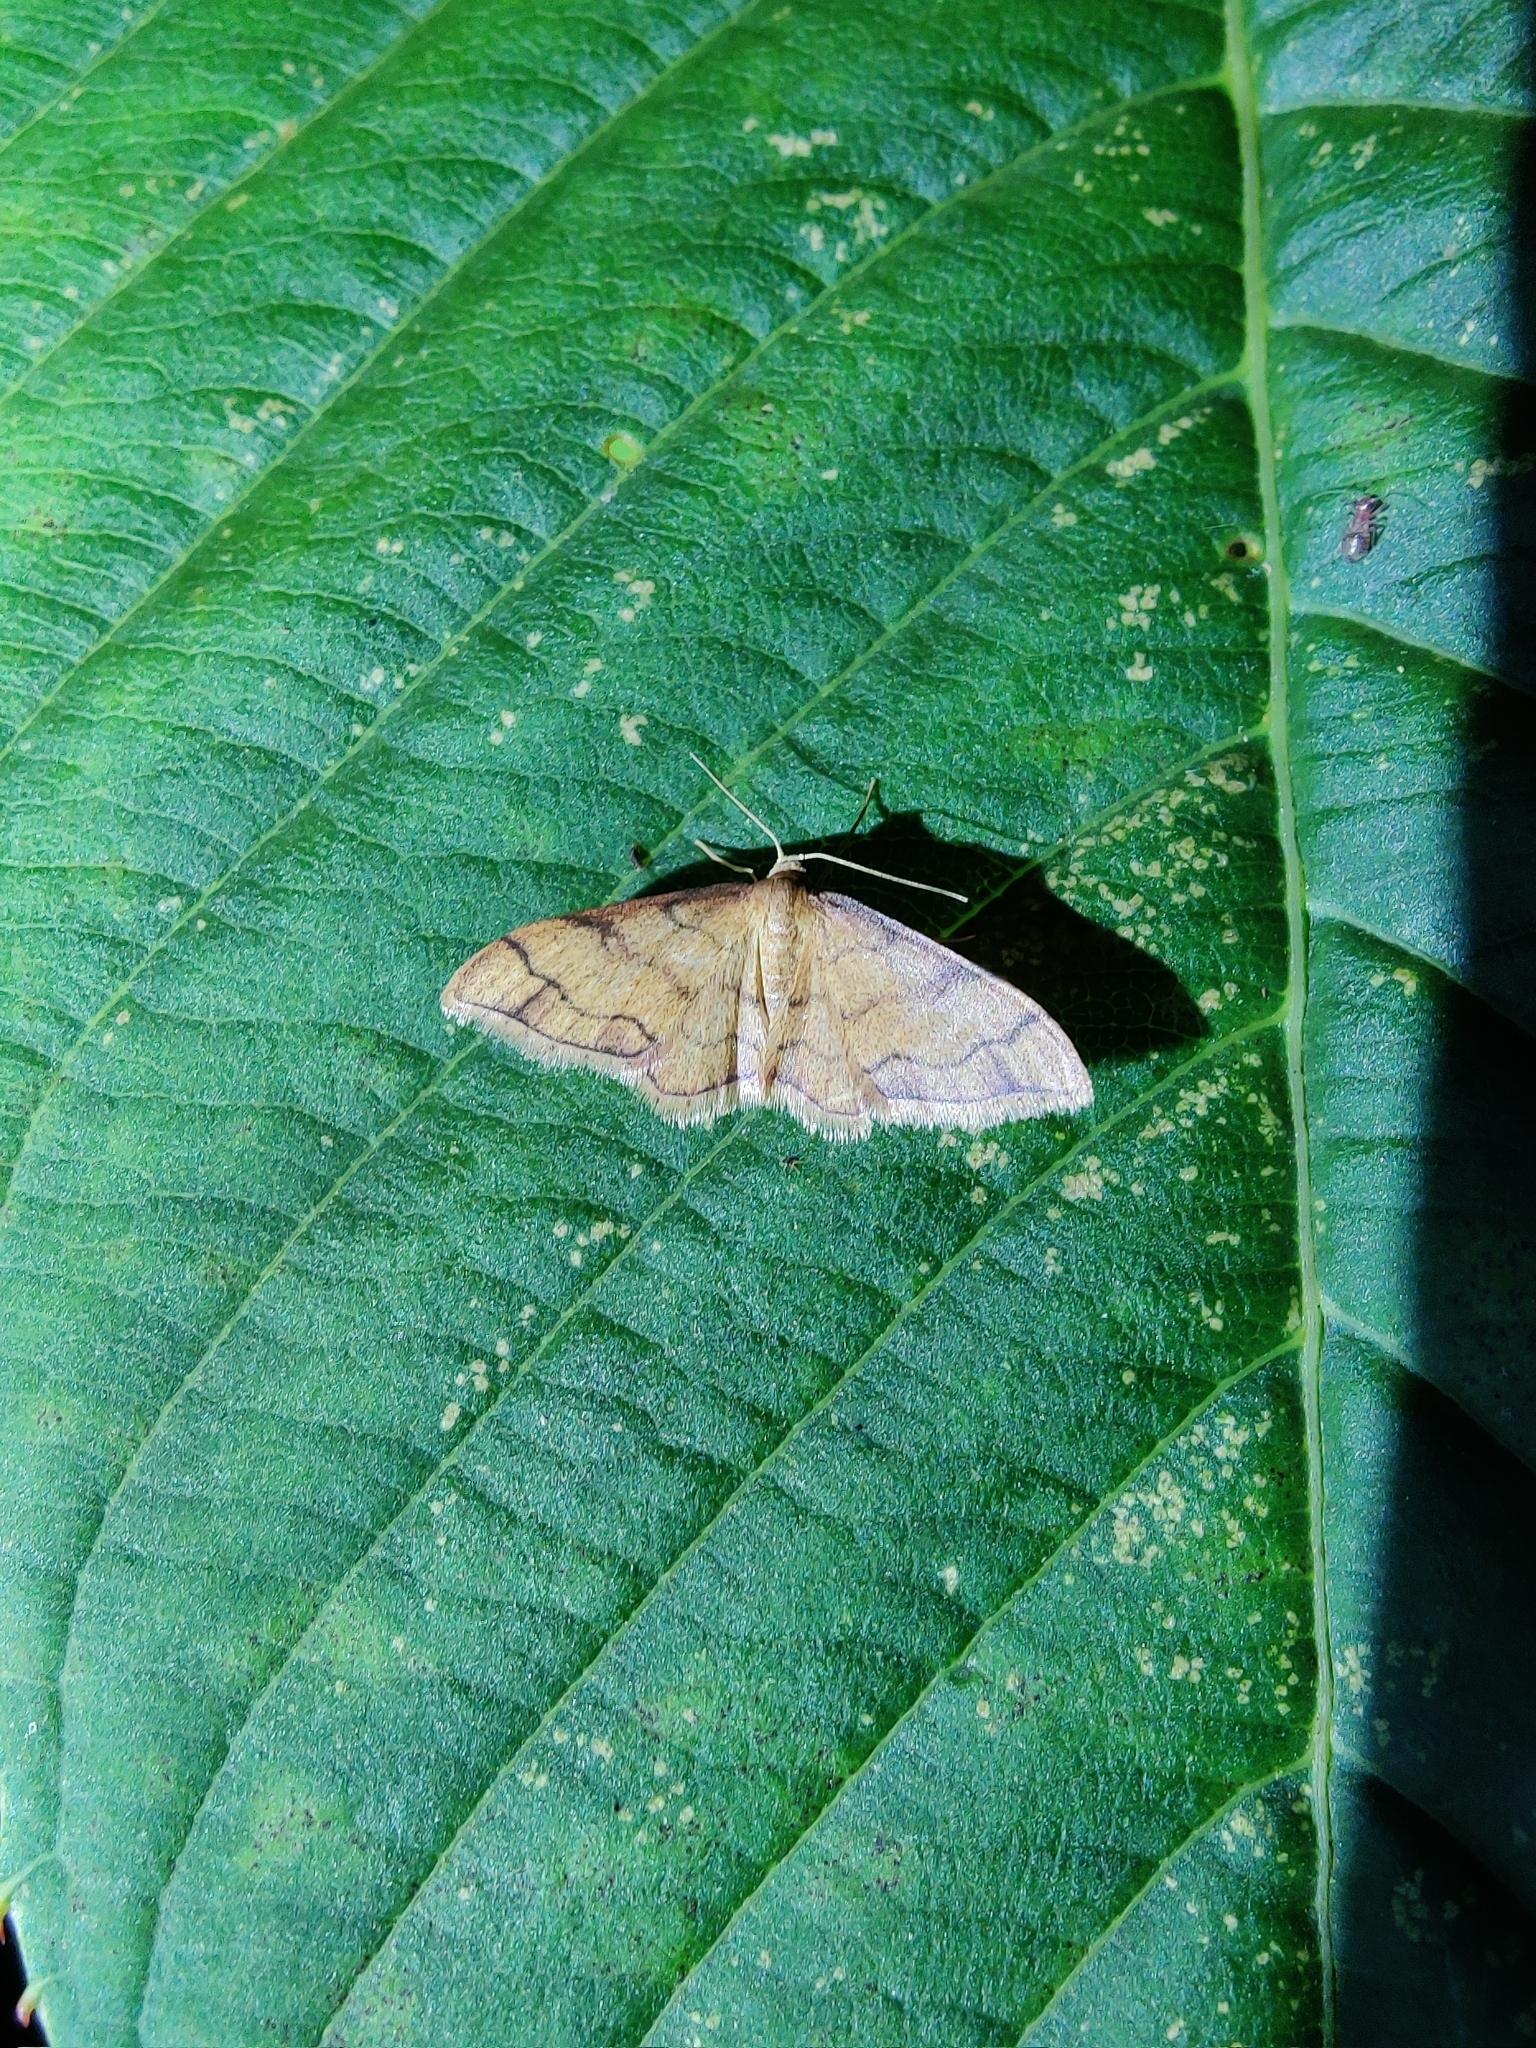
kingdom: Animalia
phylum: Arthropoda
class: Insecta
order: Lepidoptera
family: Geometridae
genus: Idaea
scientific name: Idaea protensa
